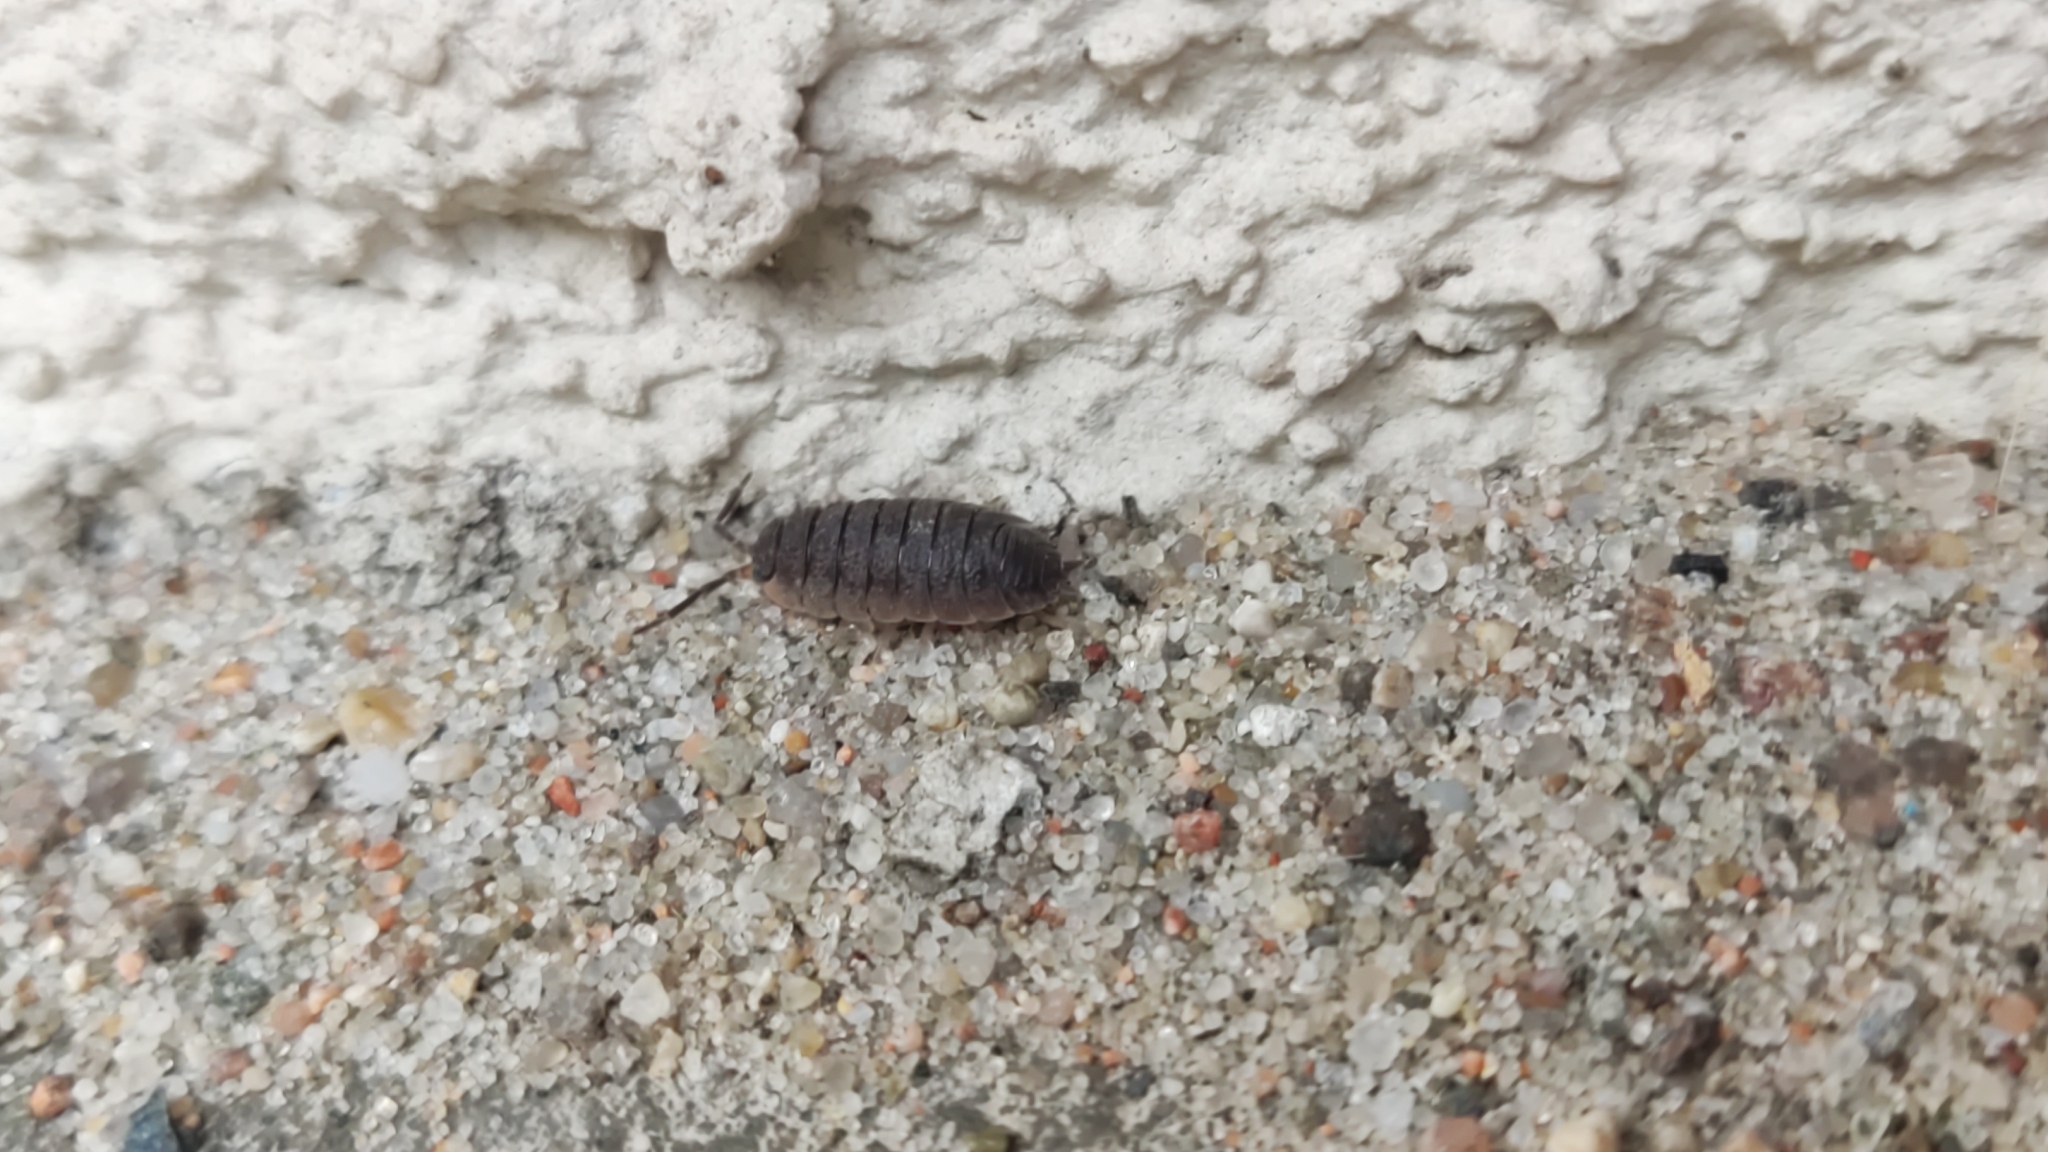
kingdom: Animalia
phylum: Arthropoda
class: Malacostraca
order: Isopoda
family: Porcellionidae
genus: Porcellio
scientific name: Porcellio scaber
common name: Common rough woodlouse
